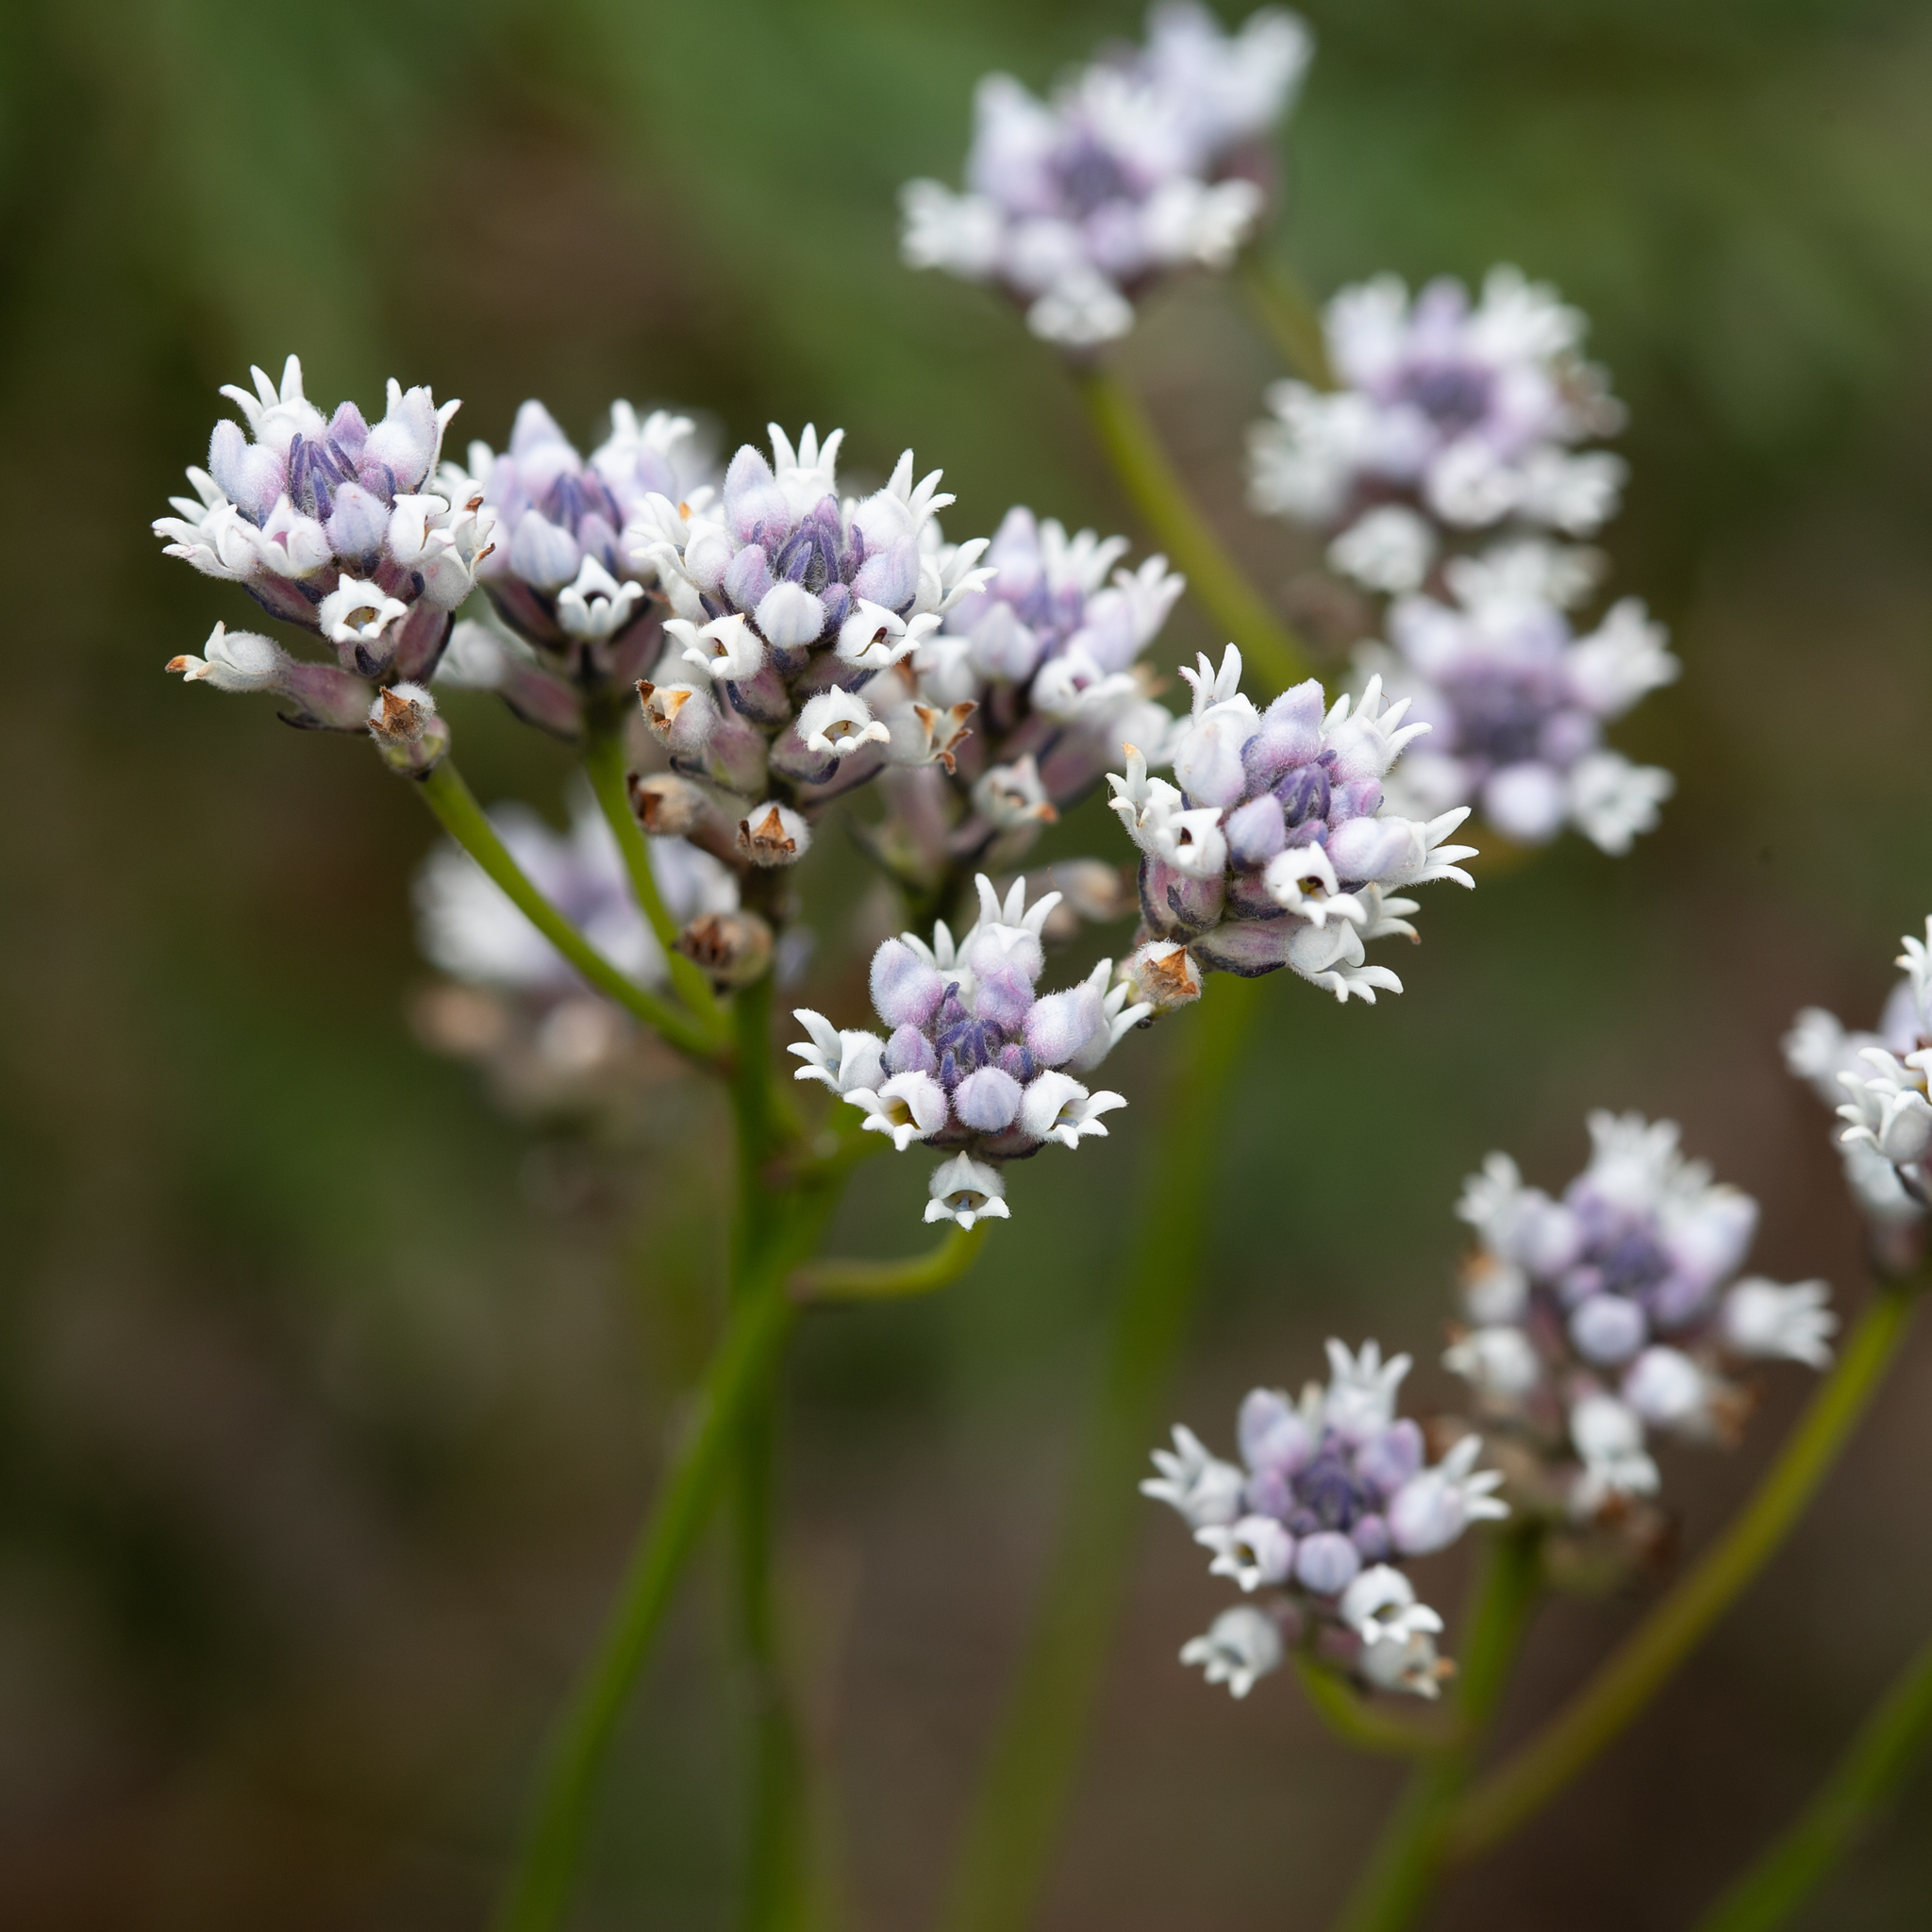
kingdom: Plantae
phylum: Tracheophyta
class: Magnoliopsida
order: Proteales
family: Proteaceae
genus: Conospermum
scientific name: Conospermum patens
